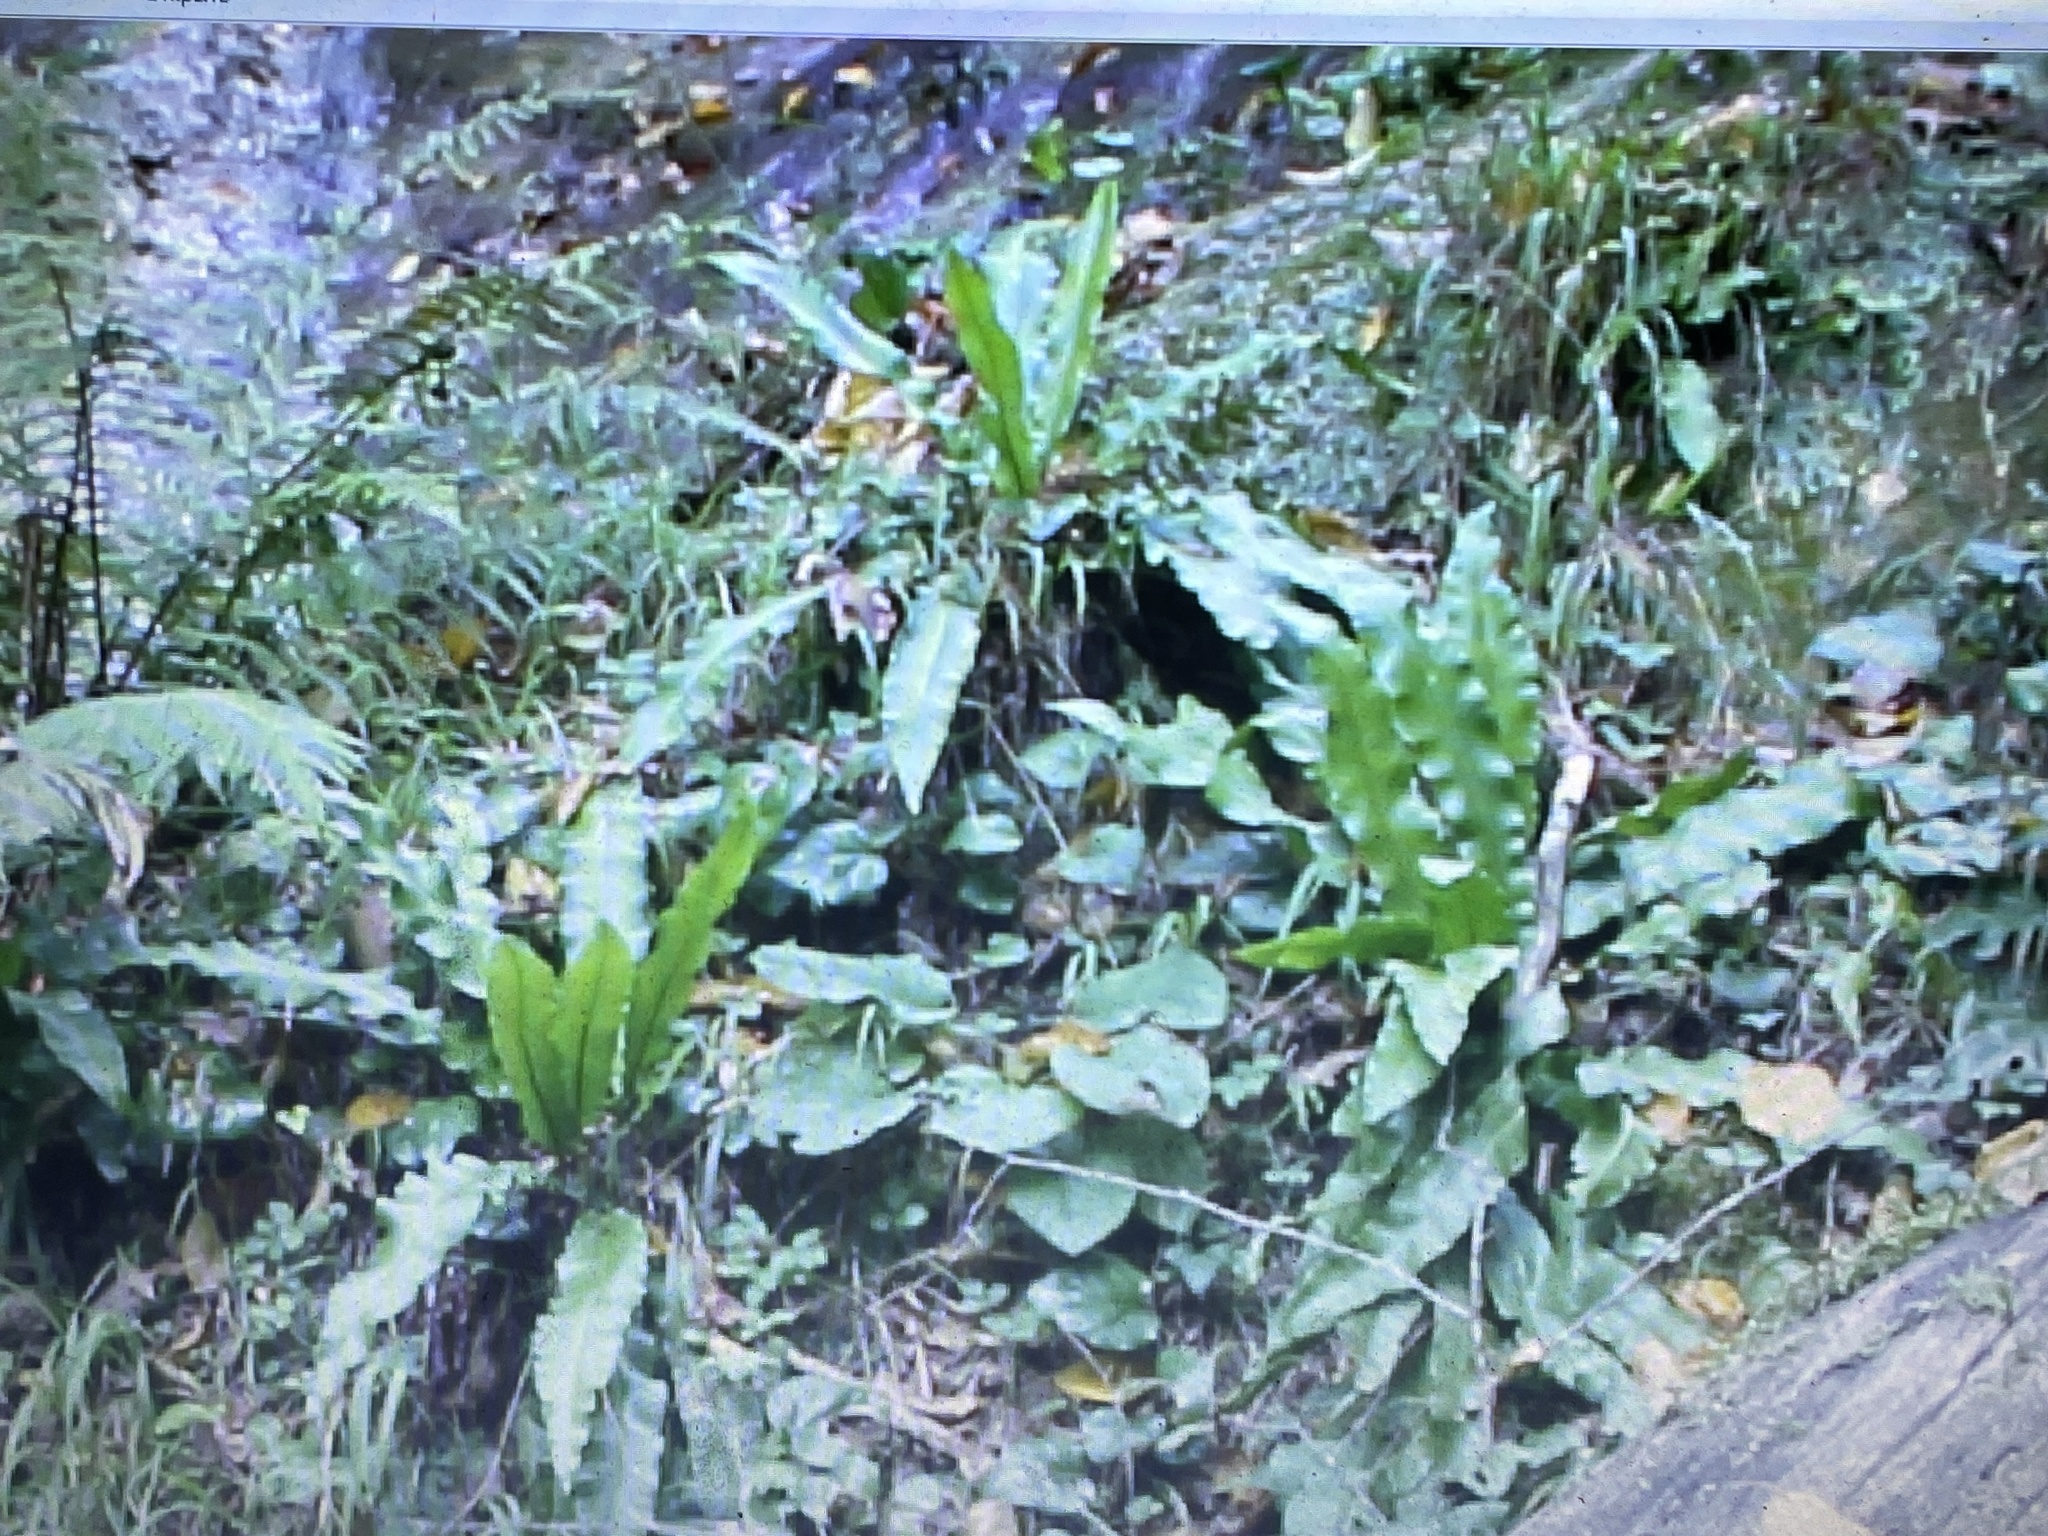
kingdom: Plantae
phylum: Tracheophyta
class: Polypodiopsida
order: Polypodiales
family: Aspleniaceae
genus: Asplenium
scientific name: Asplenium scolopendrium
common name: Hart's-tongue fern
